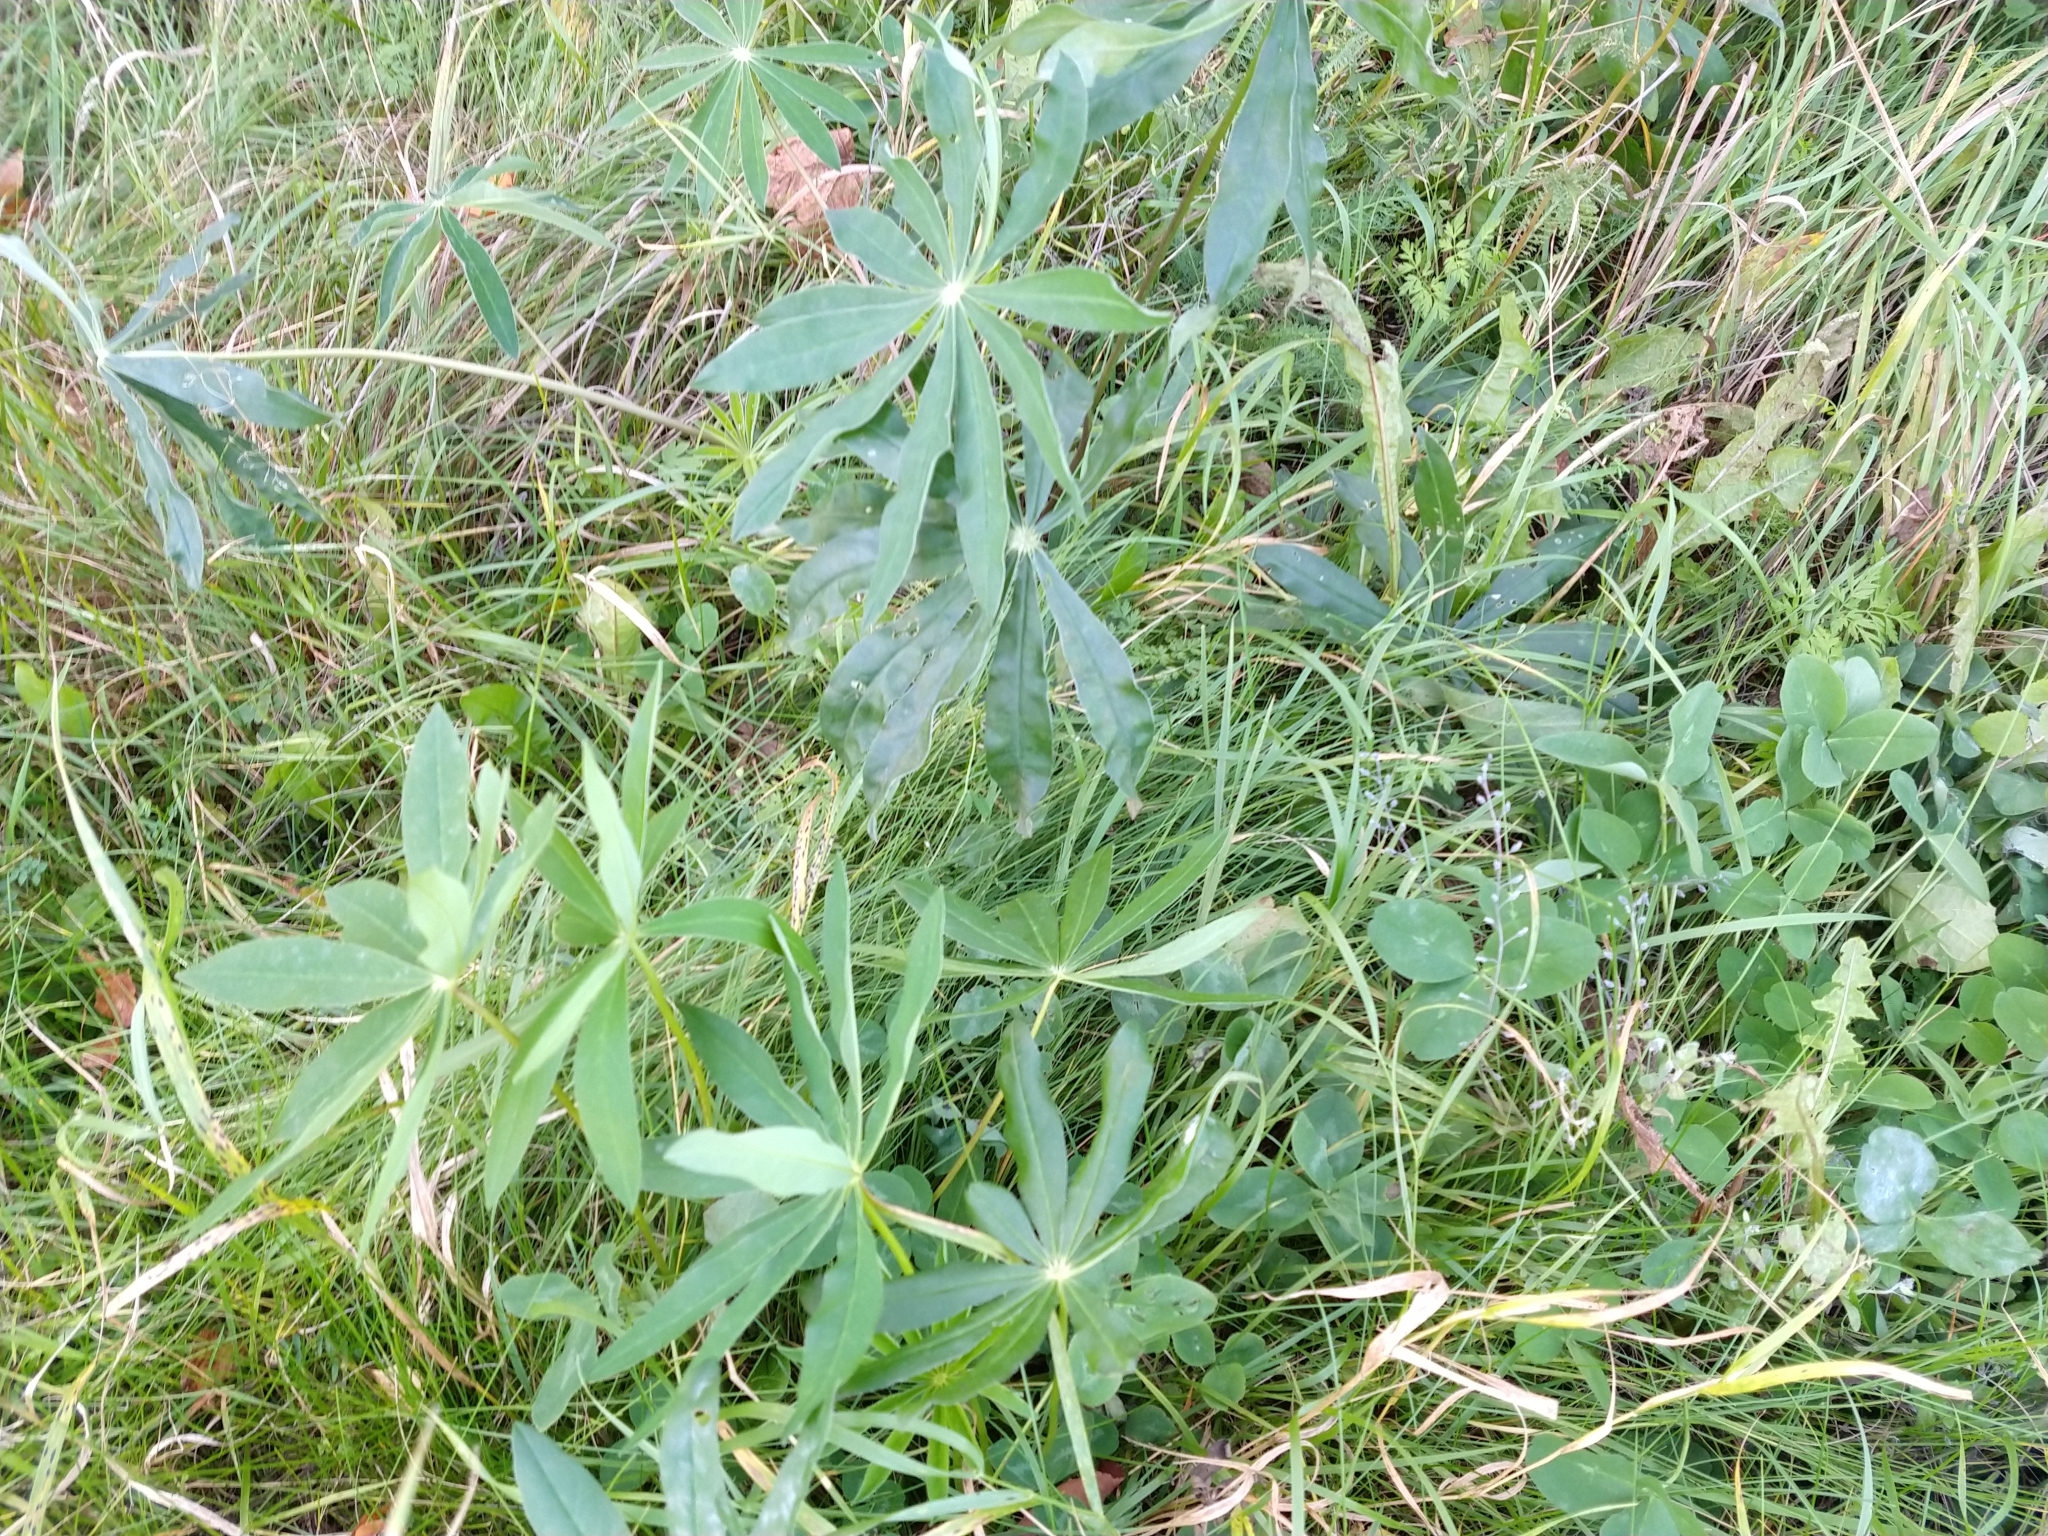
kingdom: Plantae
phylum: Tracheophyta
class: Magnoliopsida
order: Fabales
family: Fabaceae
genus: Lupinus
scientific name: Lupinus polyphyllus
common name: Garden lupin
